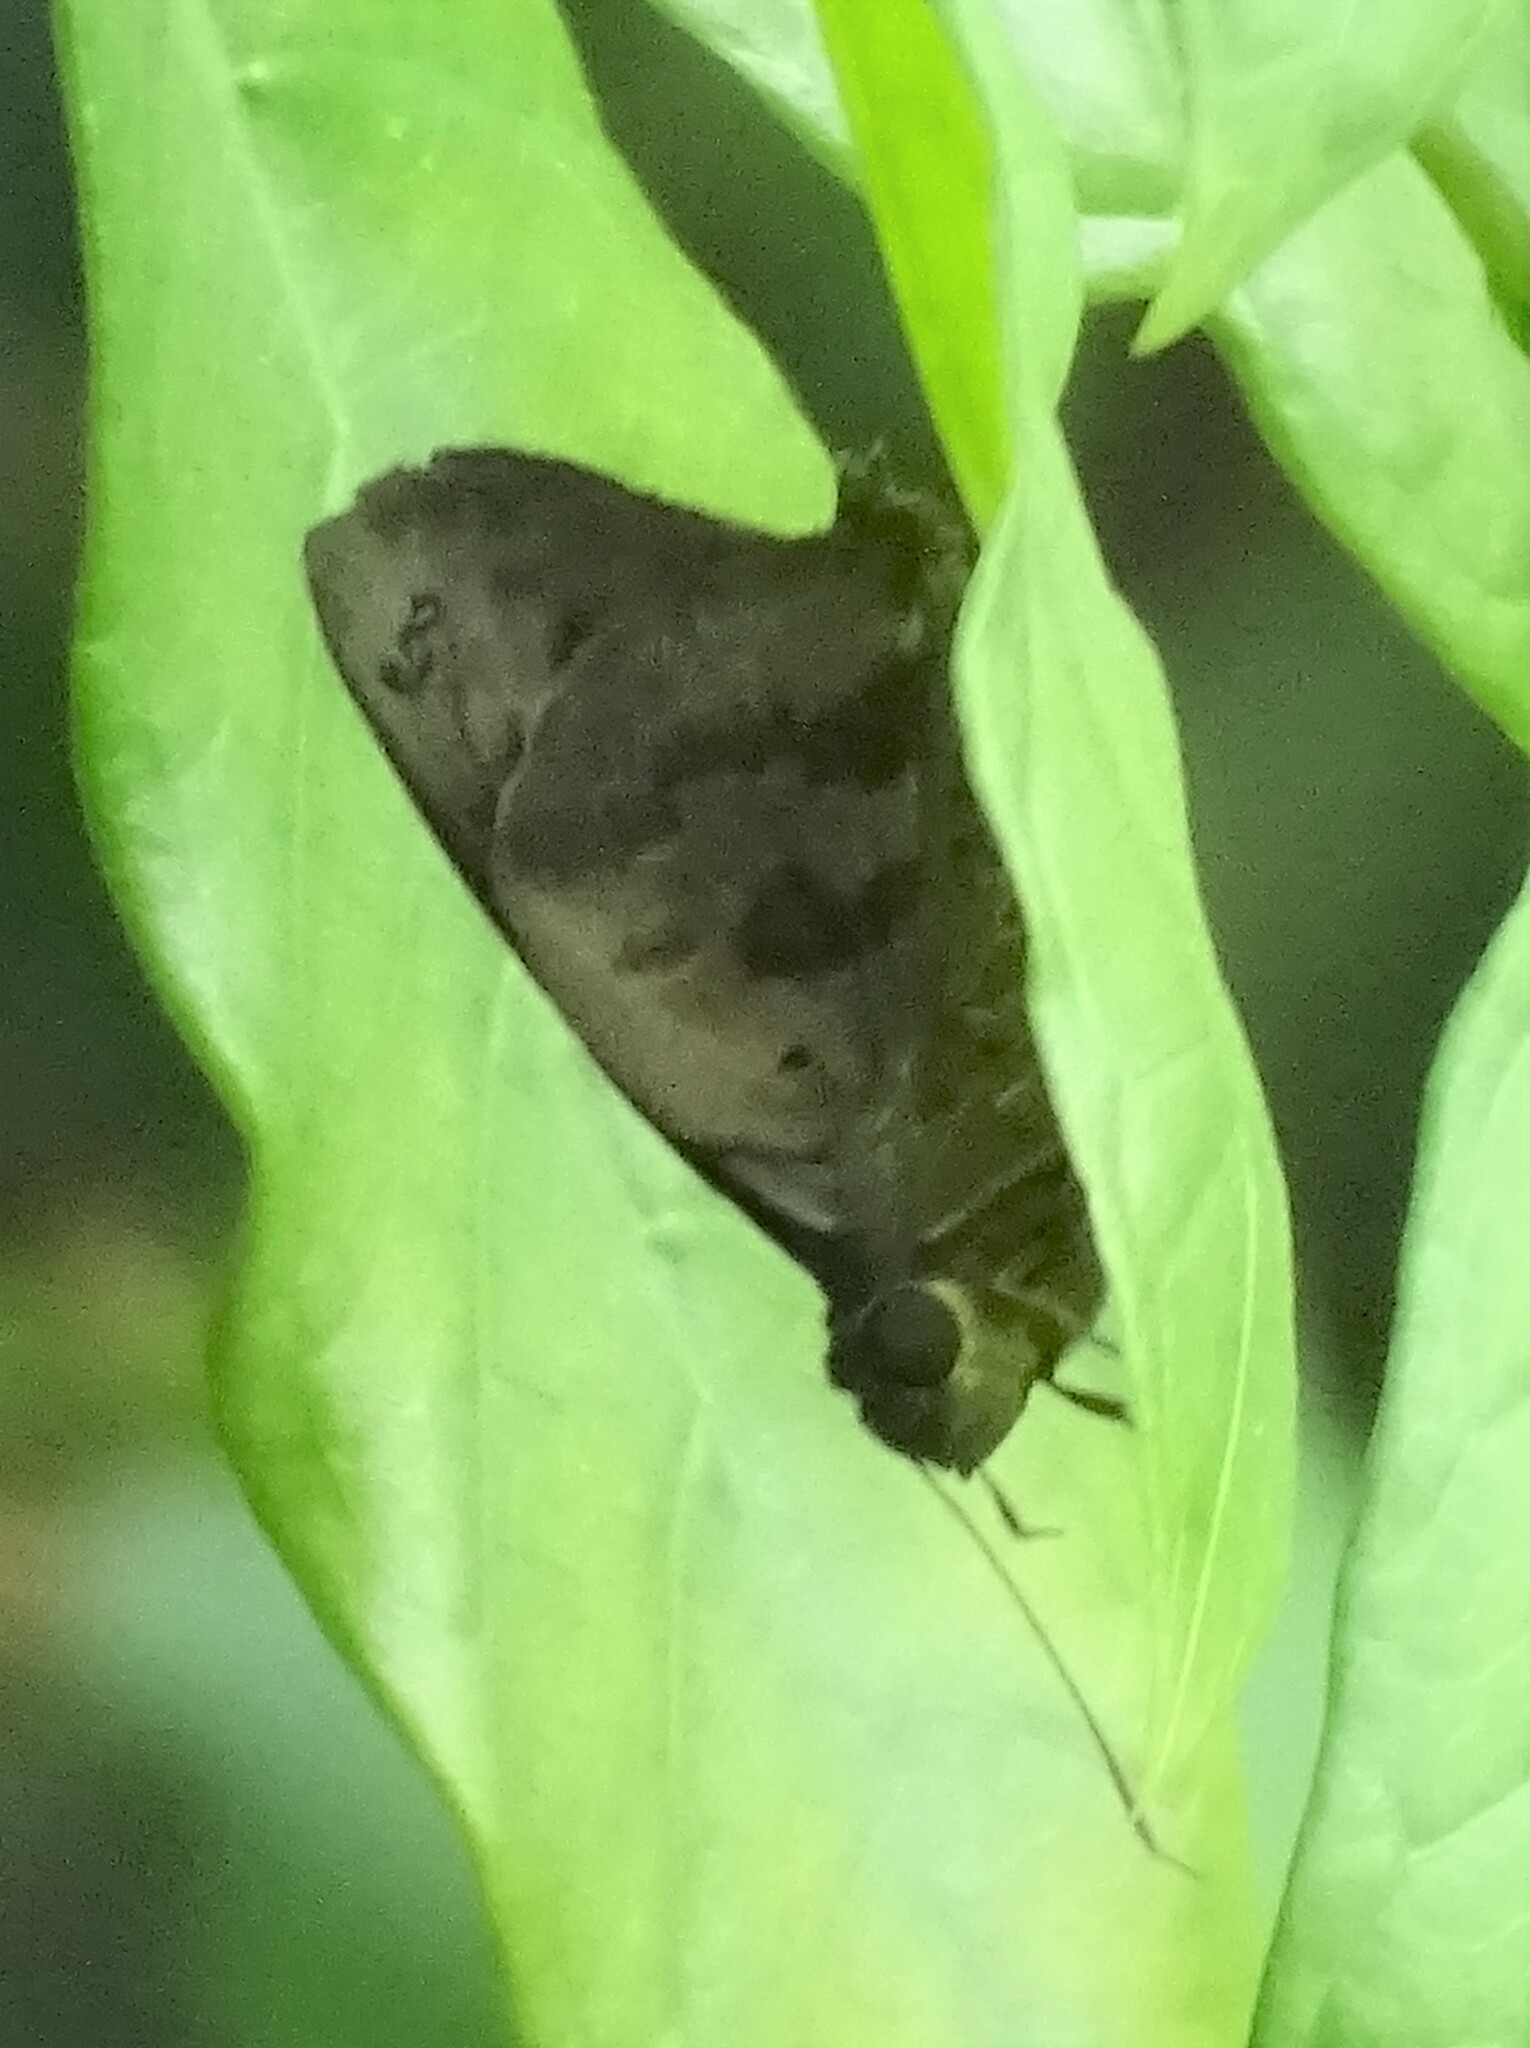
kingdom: Animalia
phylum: Arthropoda
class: Insecta
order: Lepidoptera
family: Hesperiidae
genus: Polygonus
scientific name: Polygonus leo
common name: Hammoch skipper
